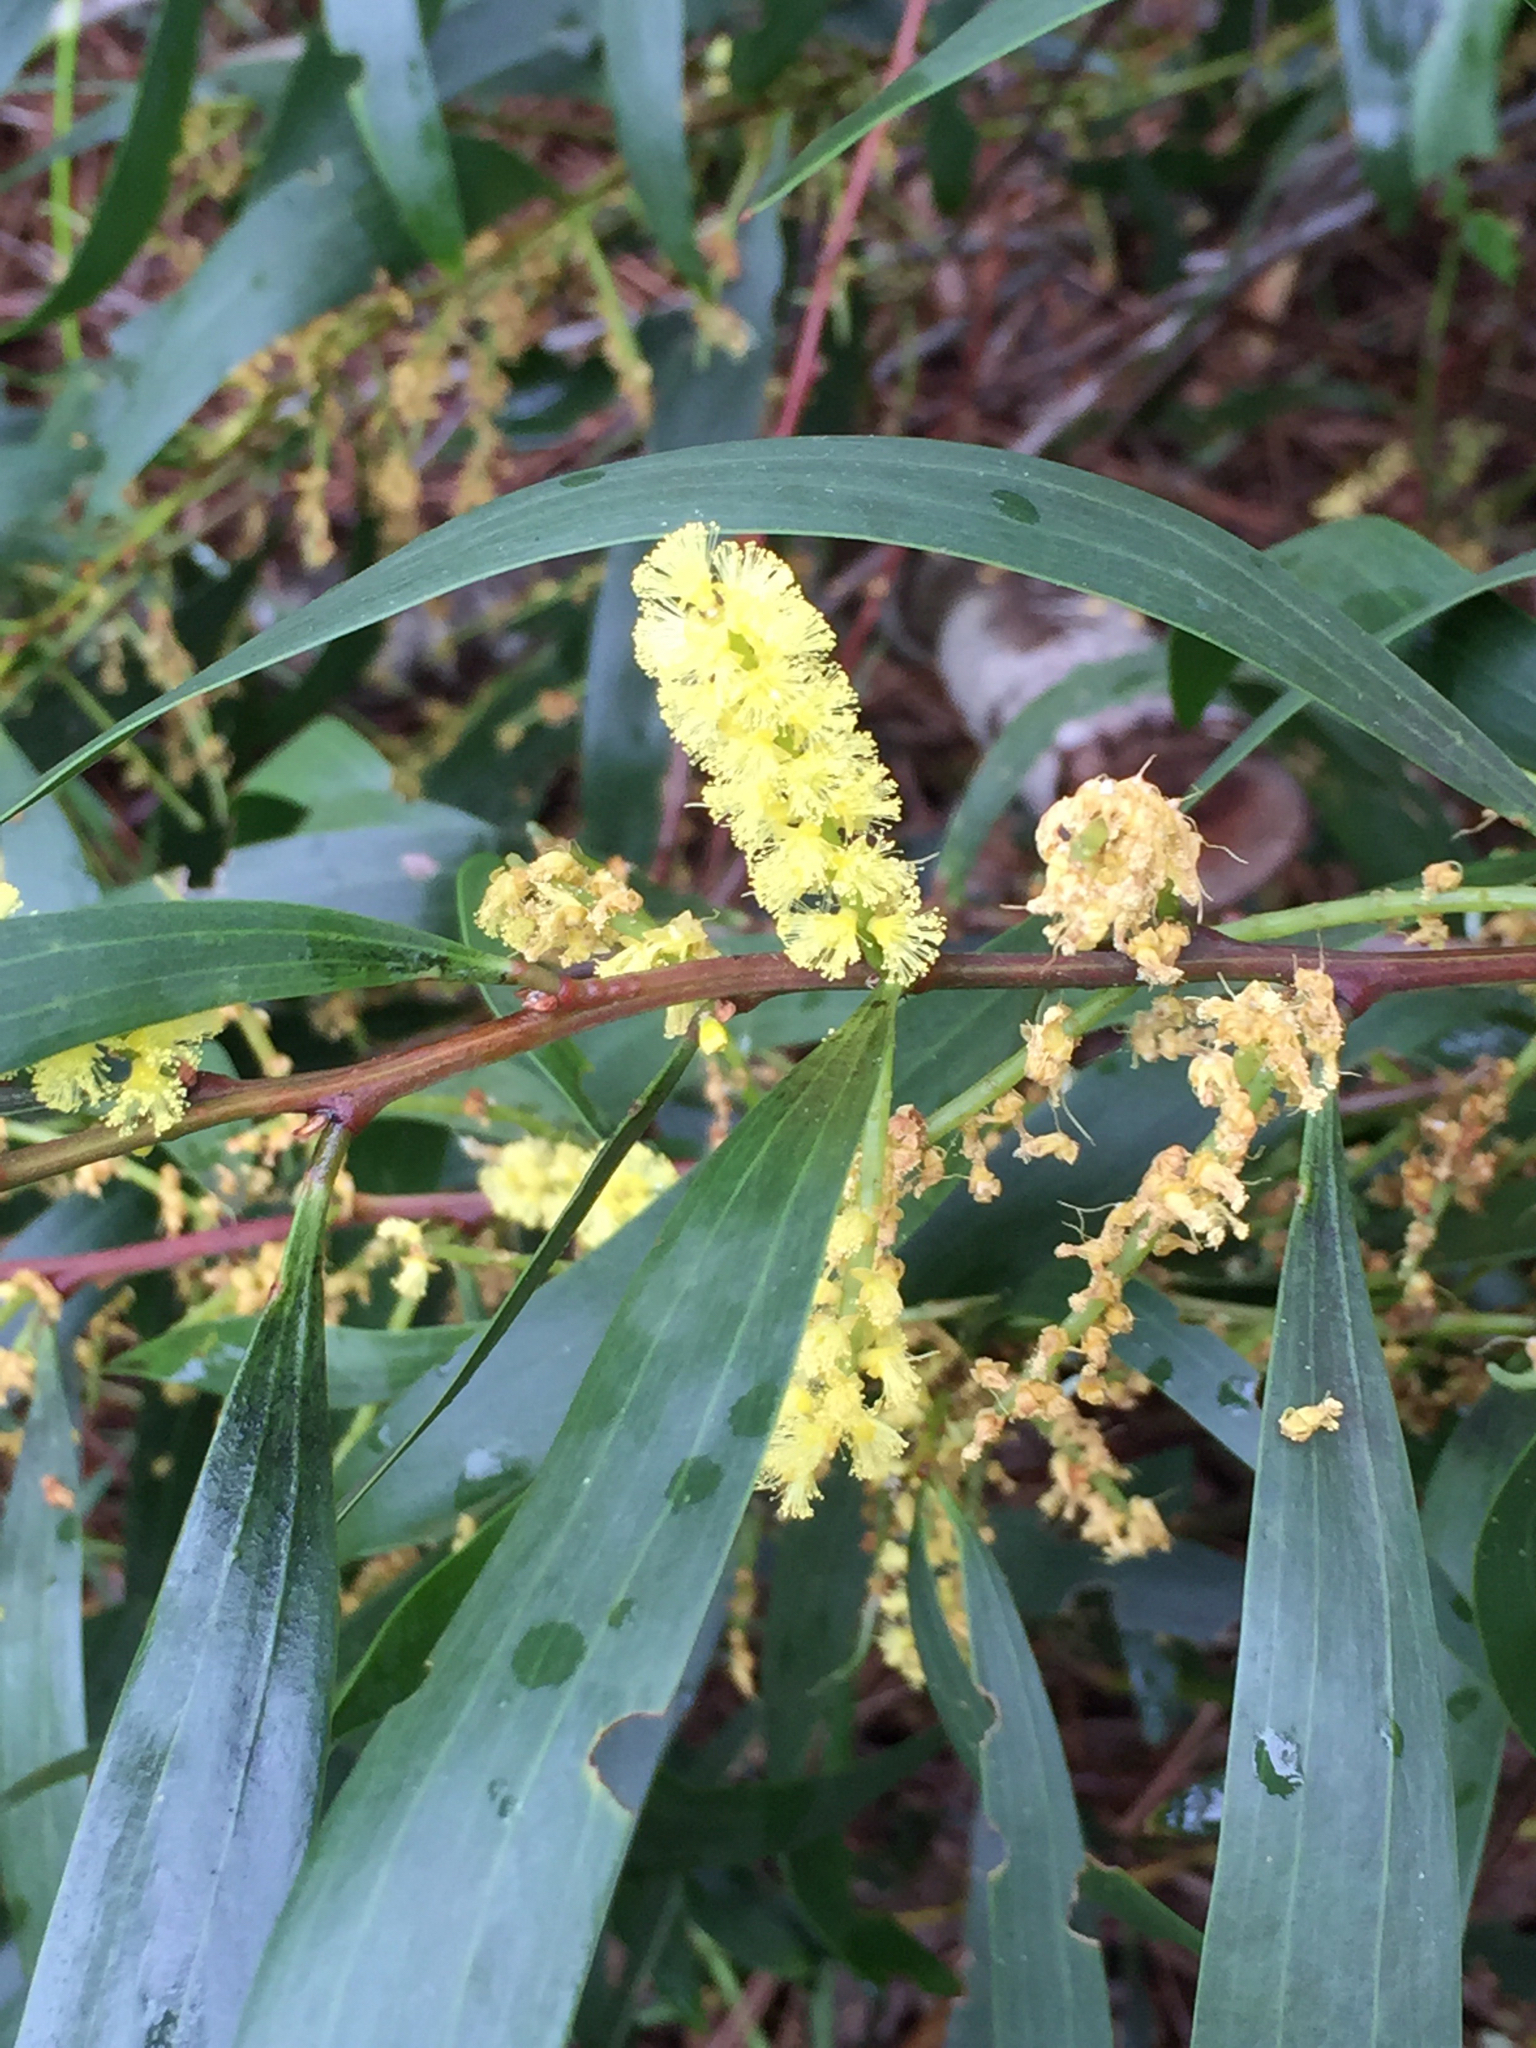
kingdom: Plantae
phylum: Tracheophyta
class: Magnoliopsida
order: Fabales
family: Fabaceae
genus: Acacia
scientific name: Acacia longifolia
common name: Sydney golden wattle
